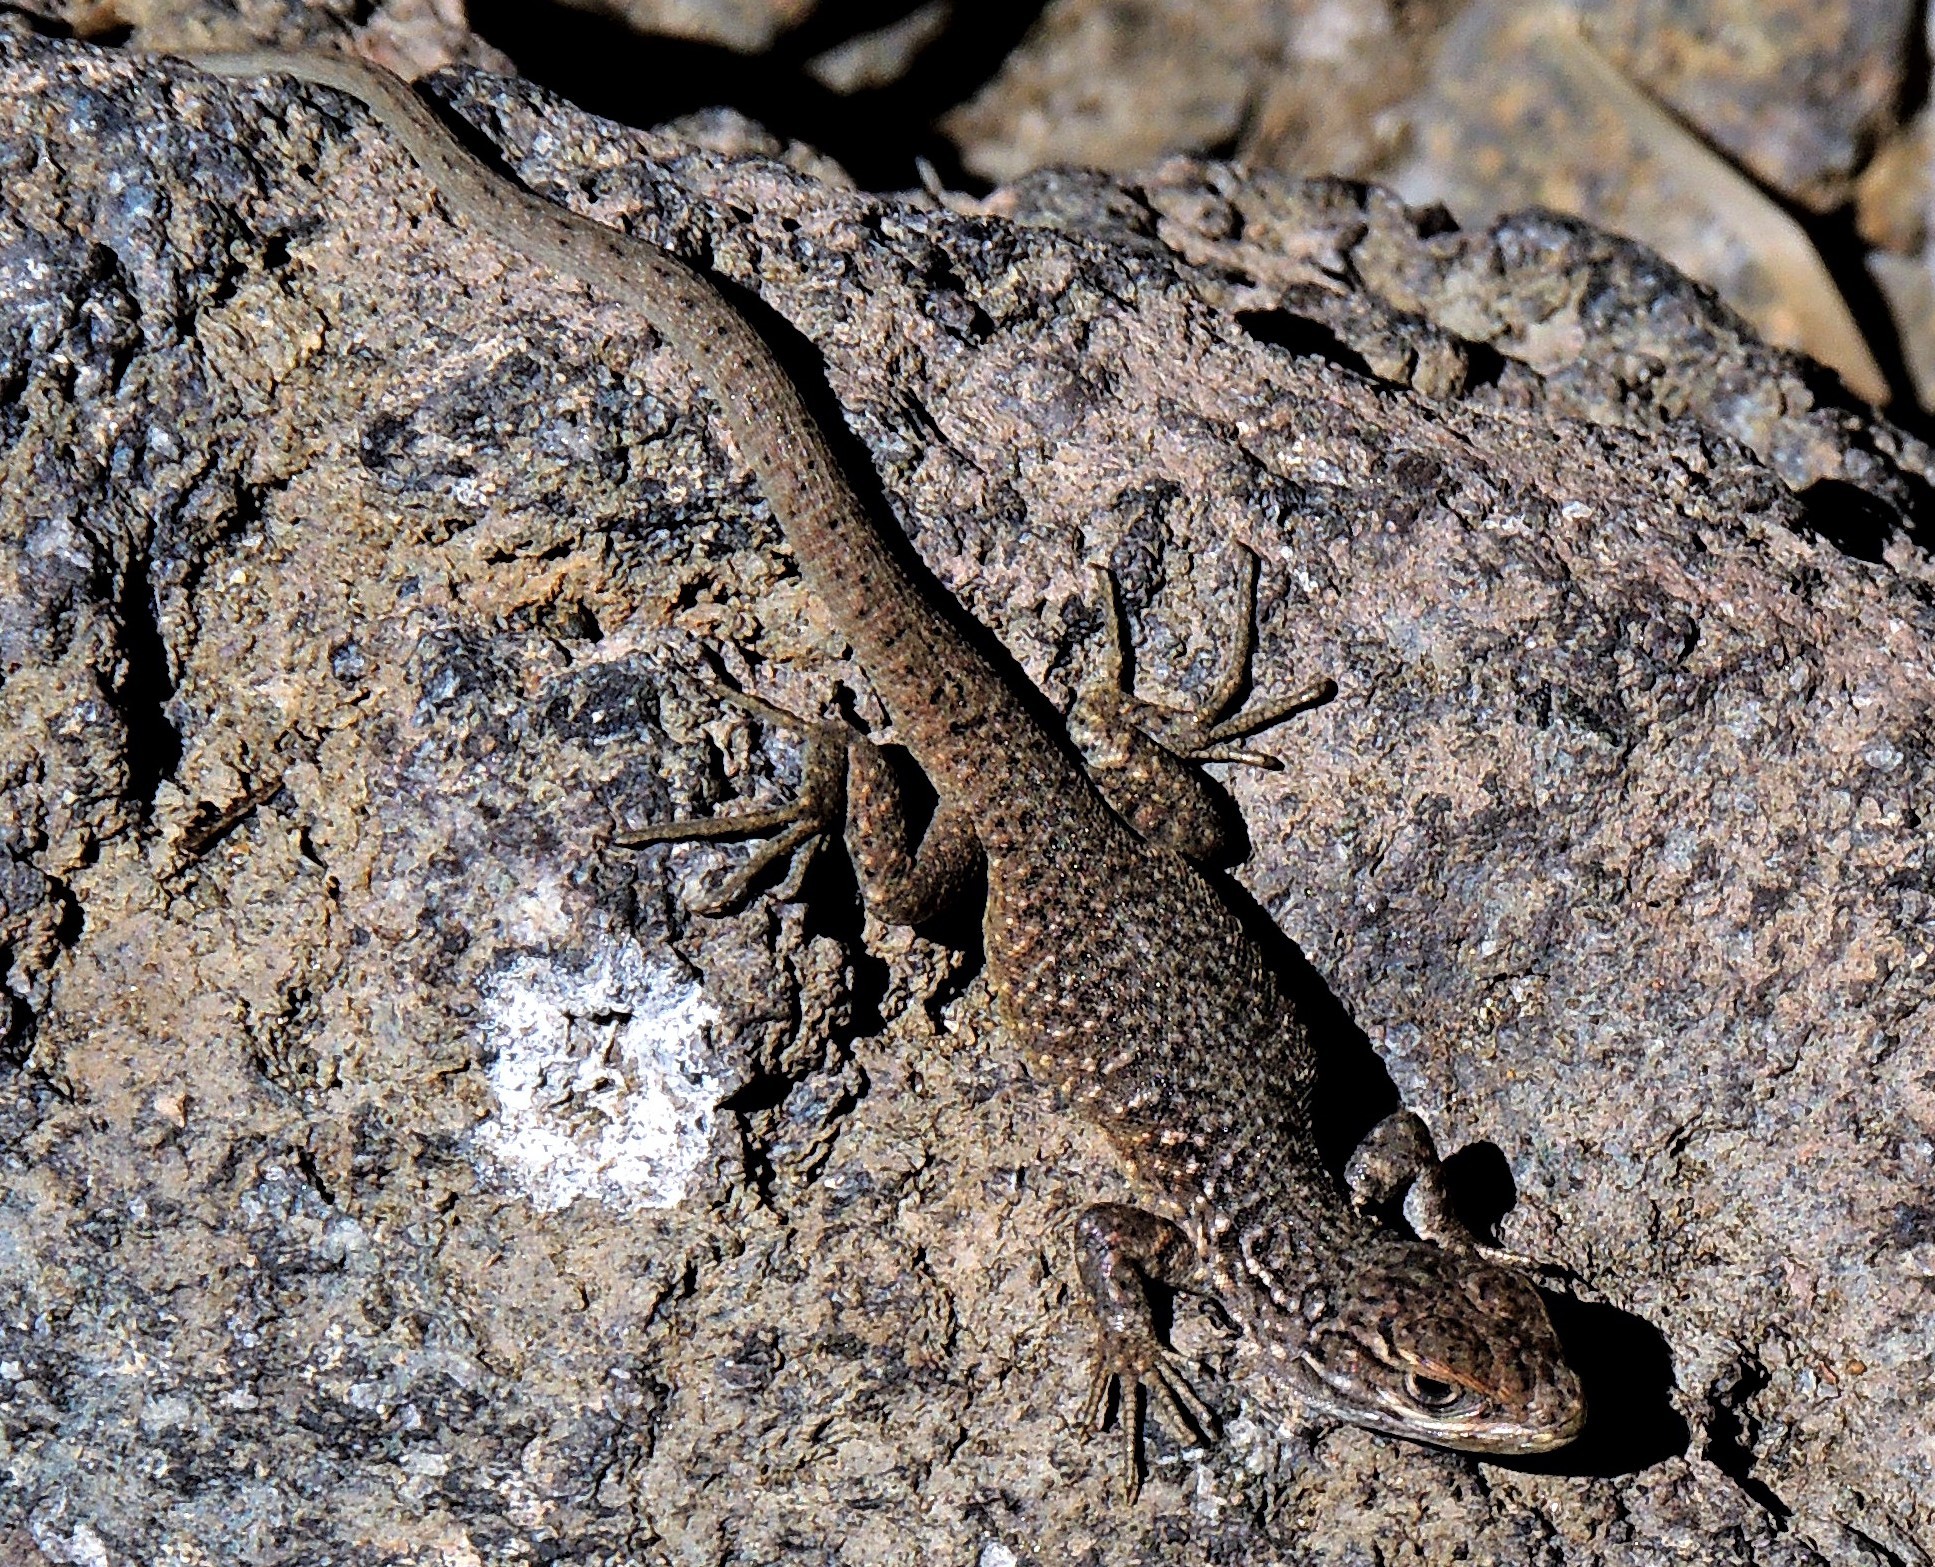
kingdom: Animalia
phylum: Chordata
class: Squamata
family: Liolaemidae
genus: Liolaemus
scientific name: Liolaemus neuquensis
